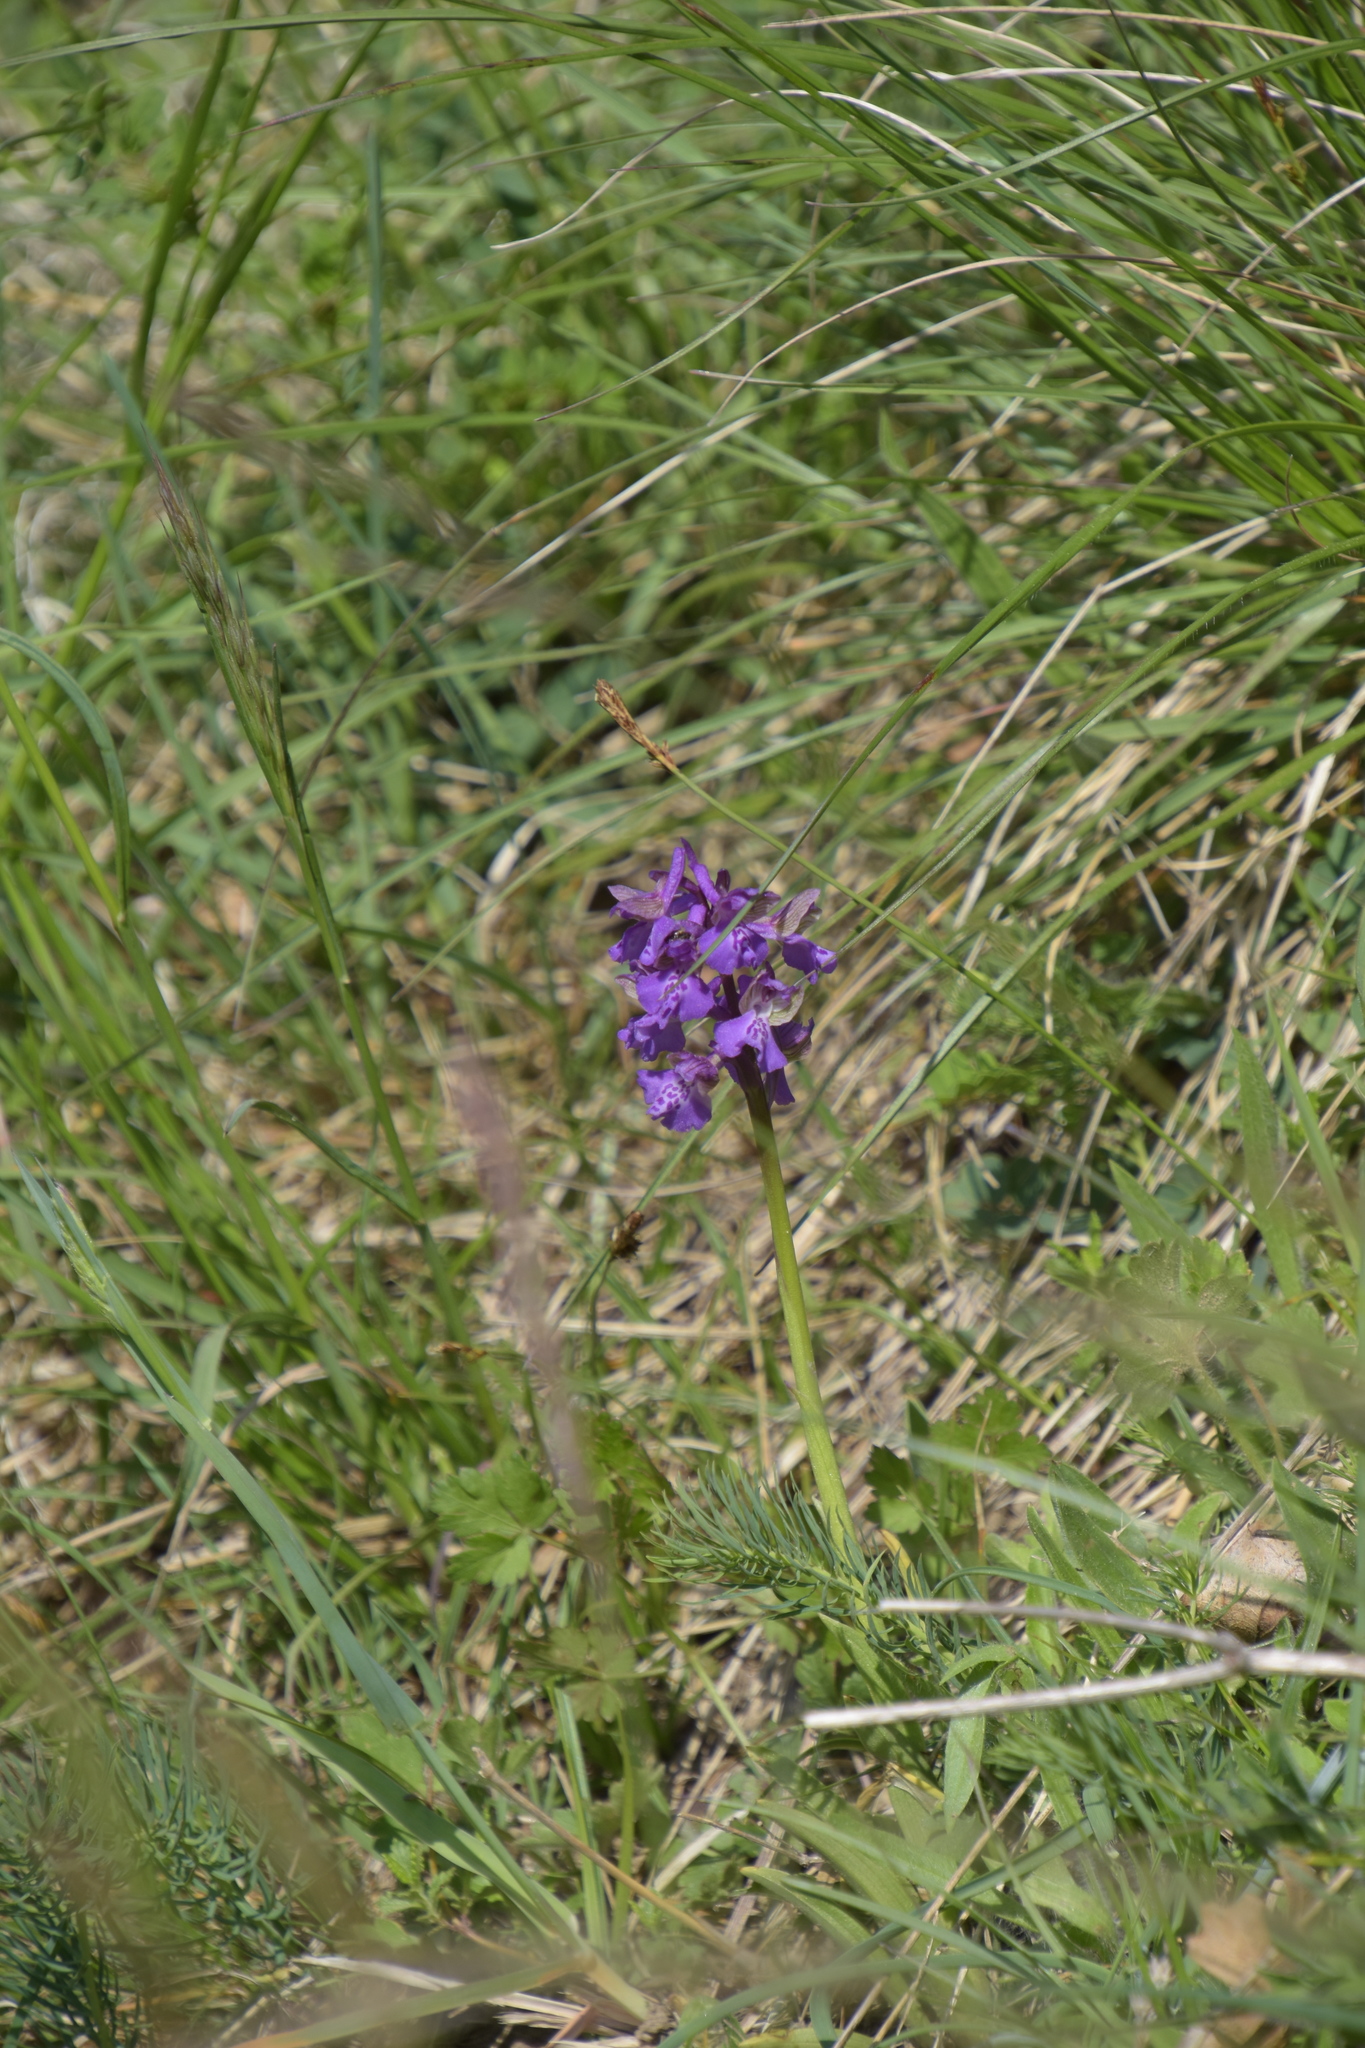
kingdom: Plantae
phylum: Tracheophyta
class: Liliopsida
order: Asparagales
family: Orchidaceae
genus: Anacamptis
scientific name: Anacamptis morio
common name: Green-winged orchid
